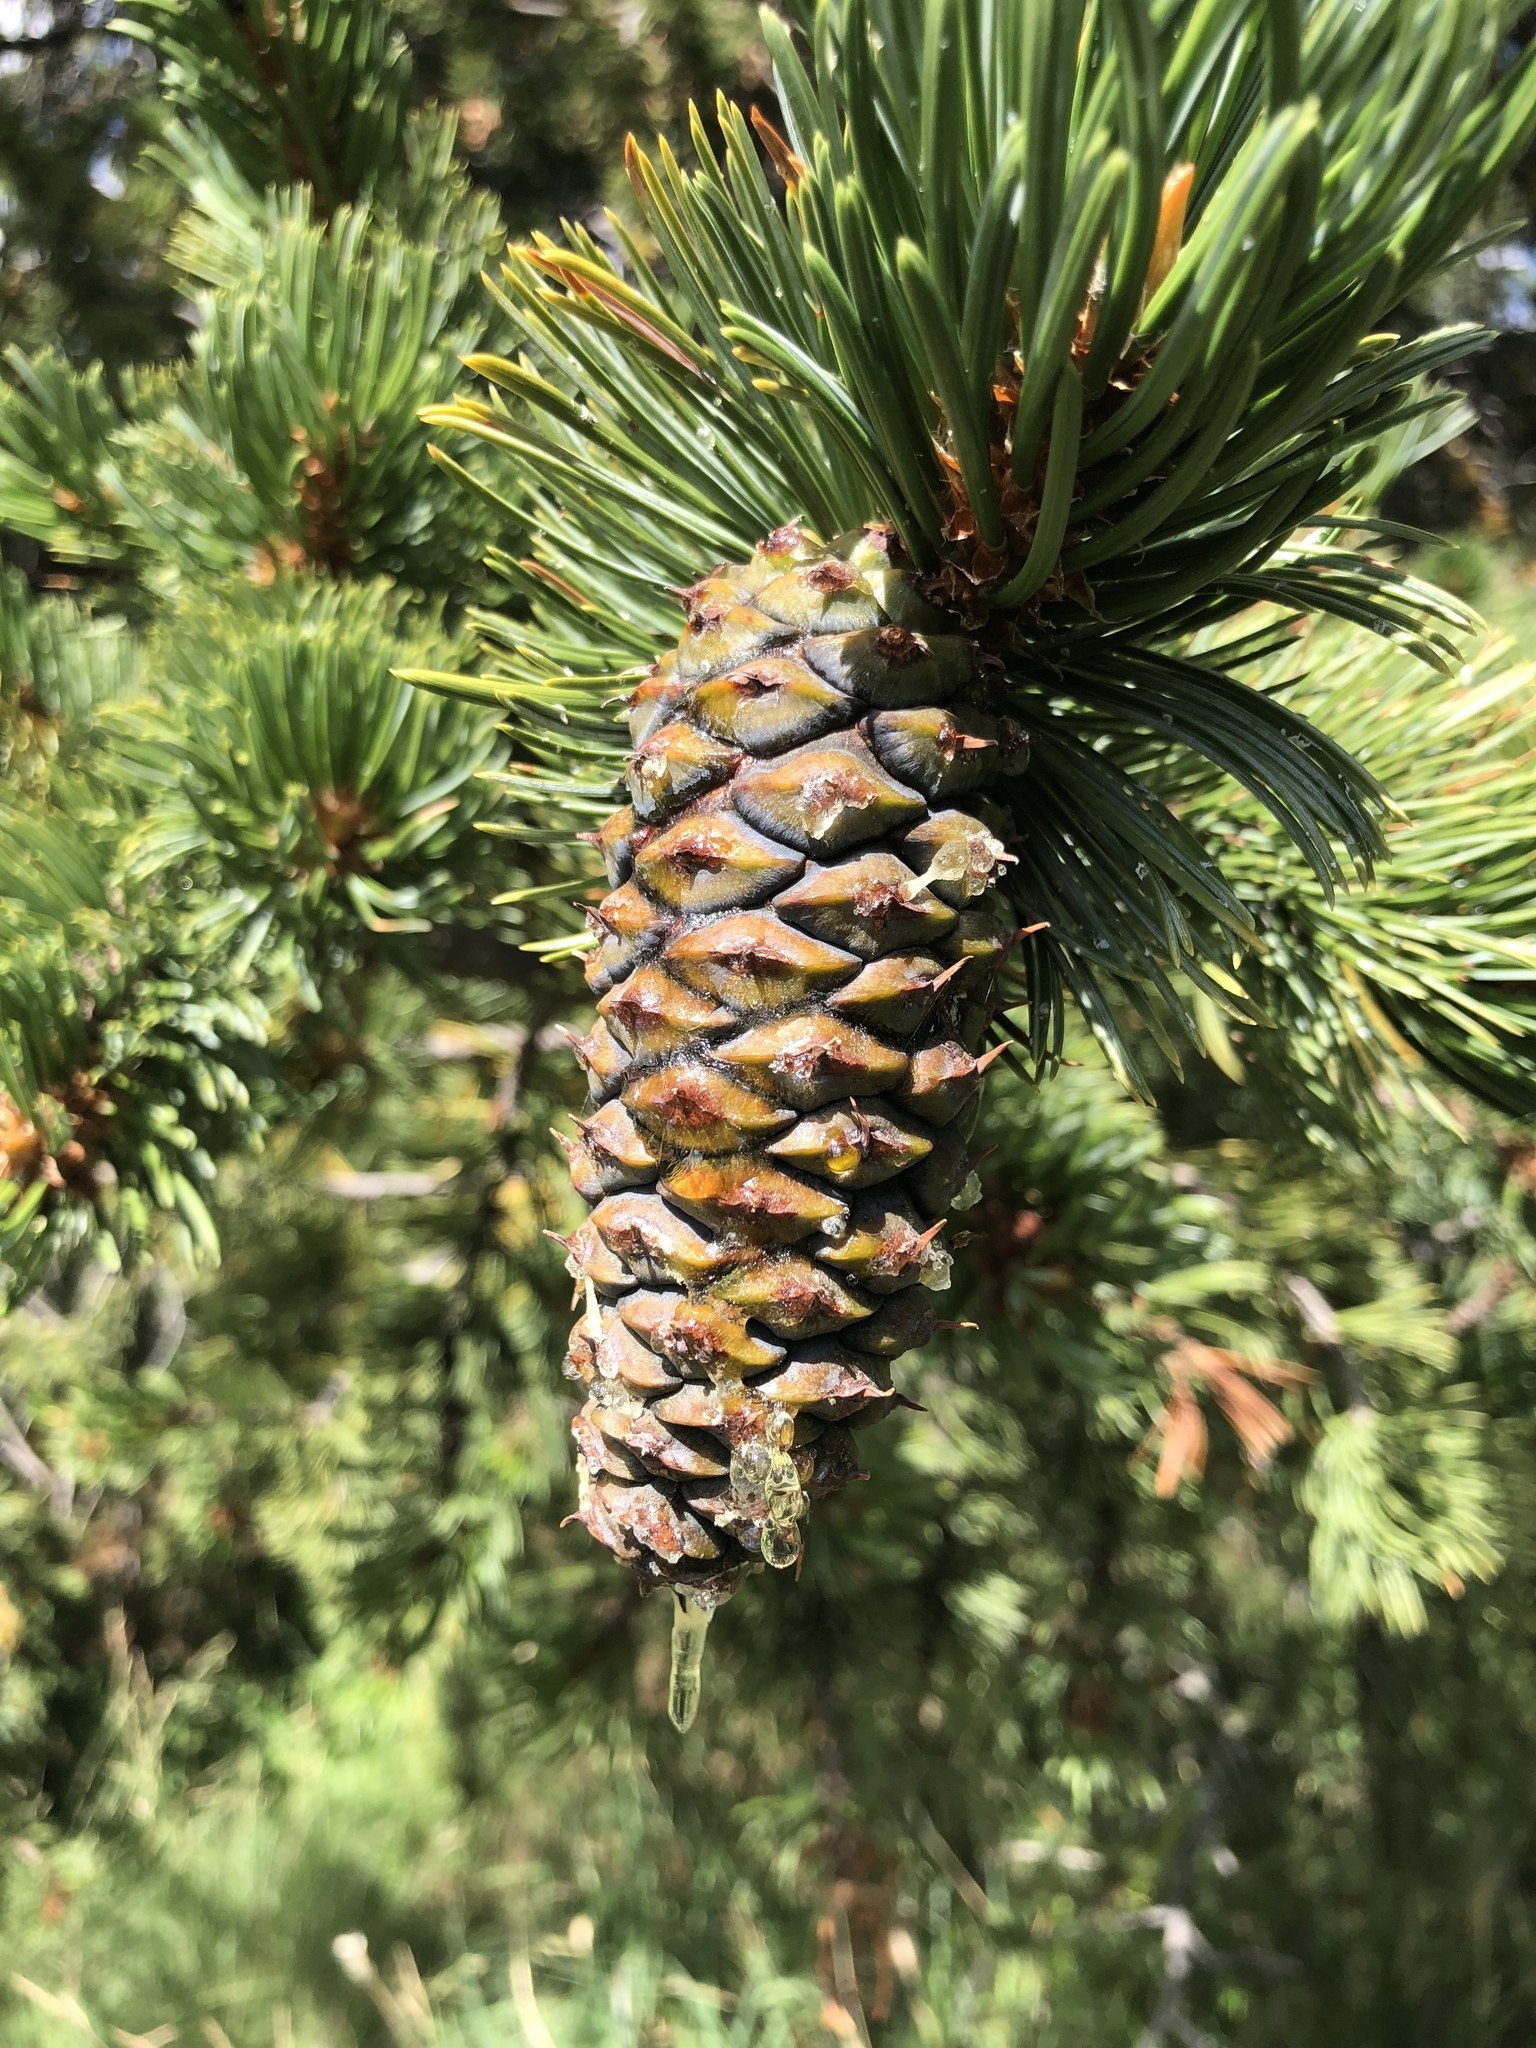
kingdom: Plantae
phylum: Tracheophyta
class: Pinopsida
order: Pinales
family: Pinaceae
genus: Pinus
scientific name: Pinus aristata
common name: Colorado bristlecone pine
